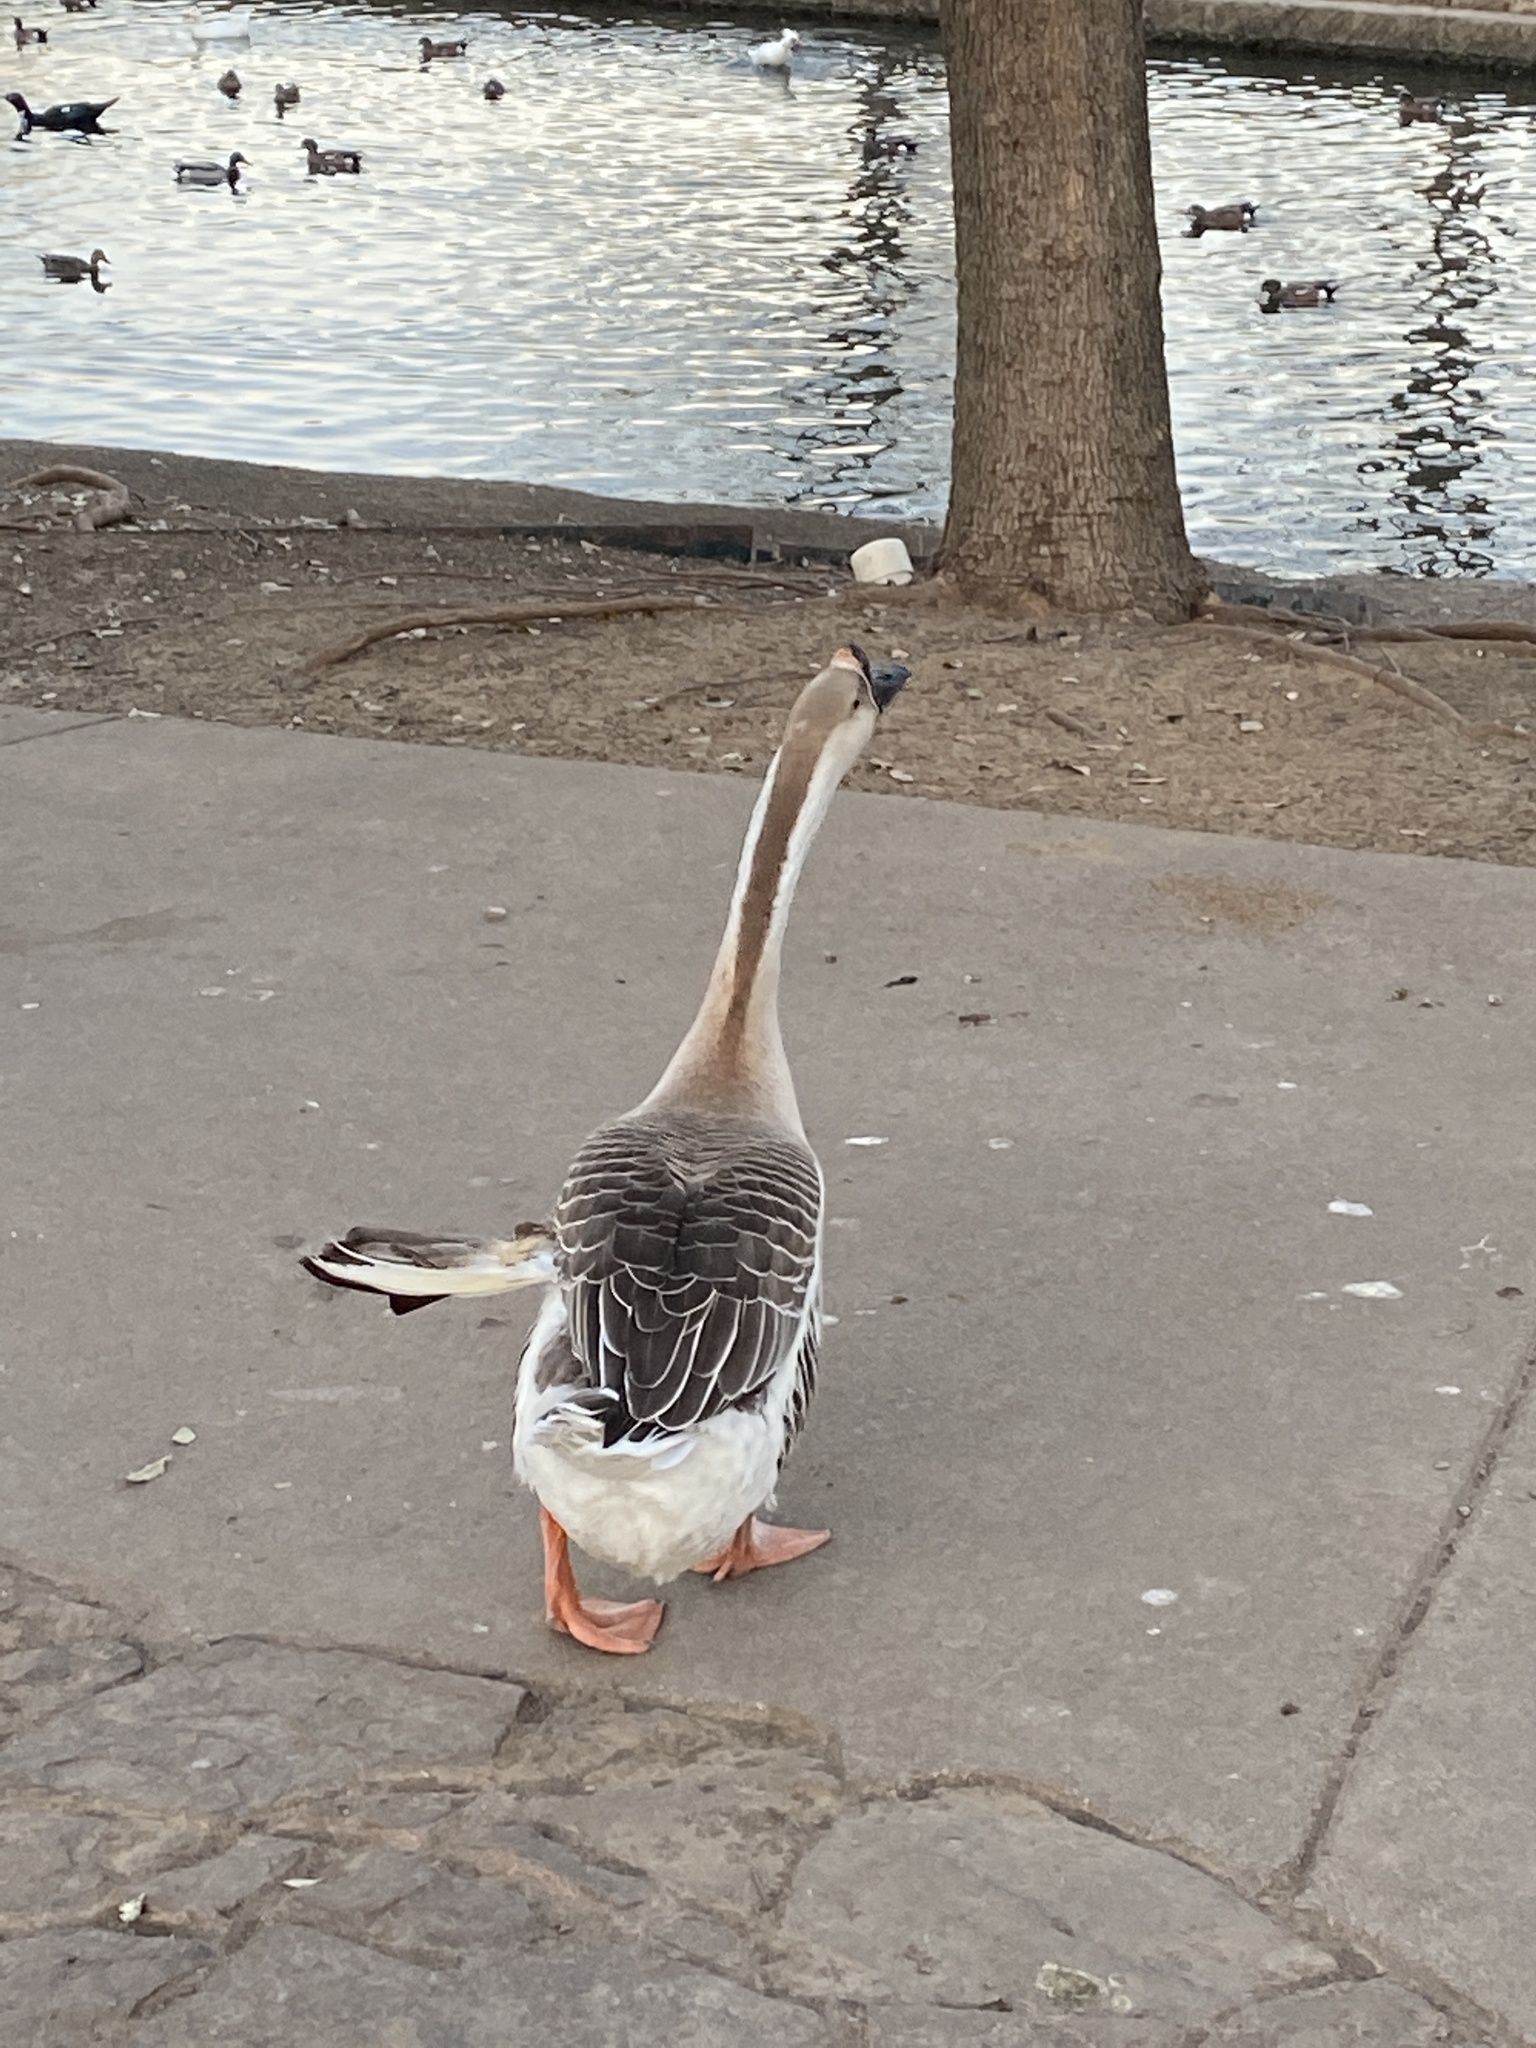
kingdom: Animalia
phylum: Chordata
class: Aves
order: Anseriformes
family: Anatidae
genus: Anser
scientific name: Anser cygnoides
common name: Swan goose
